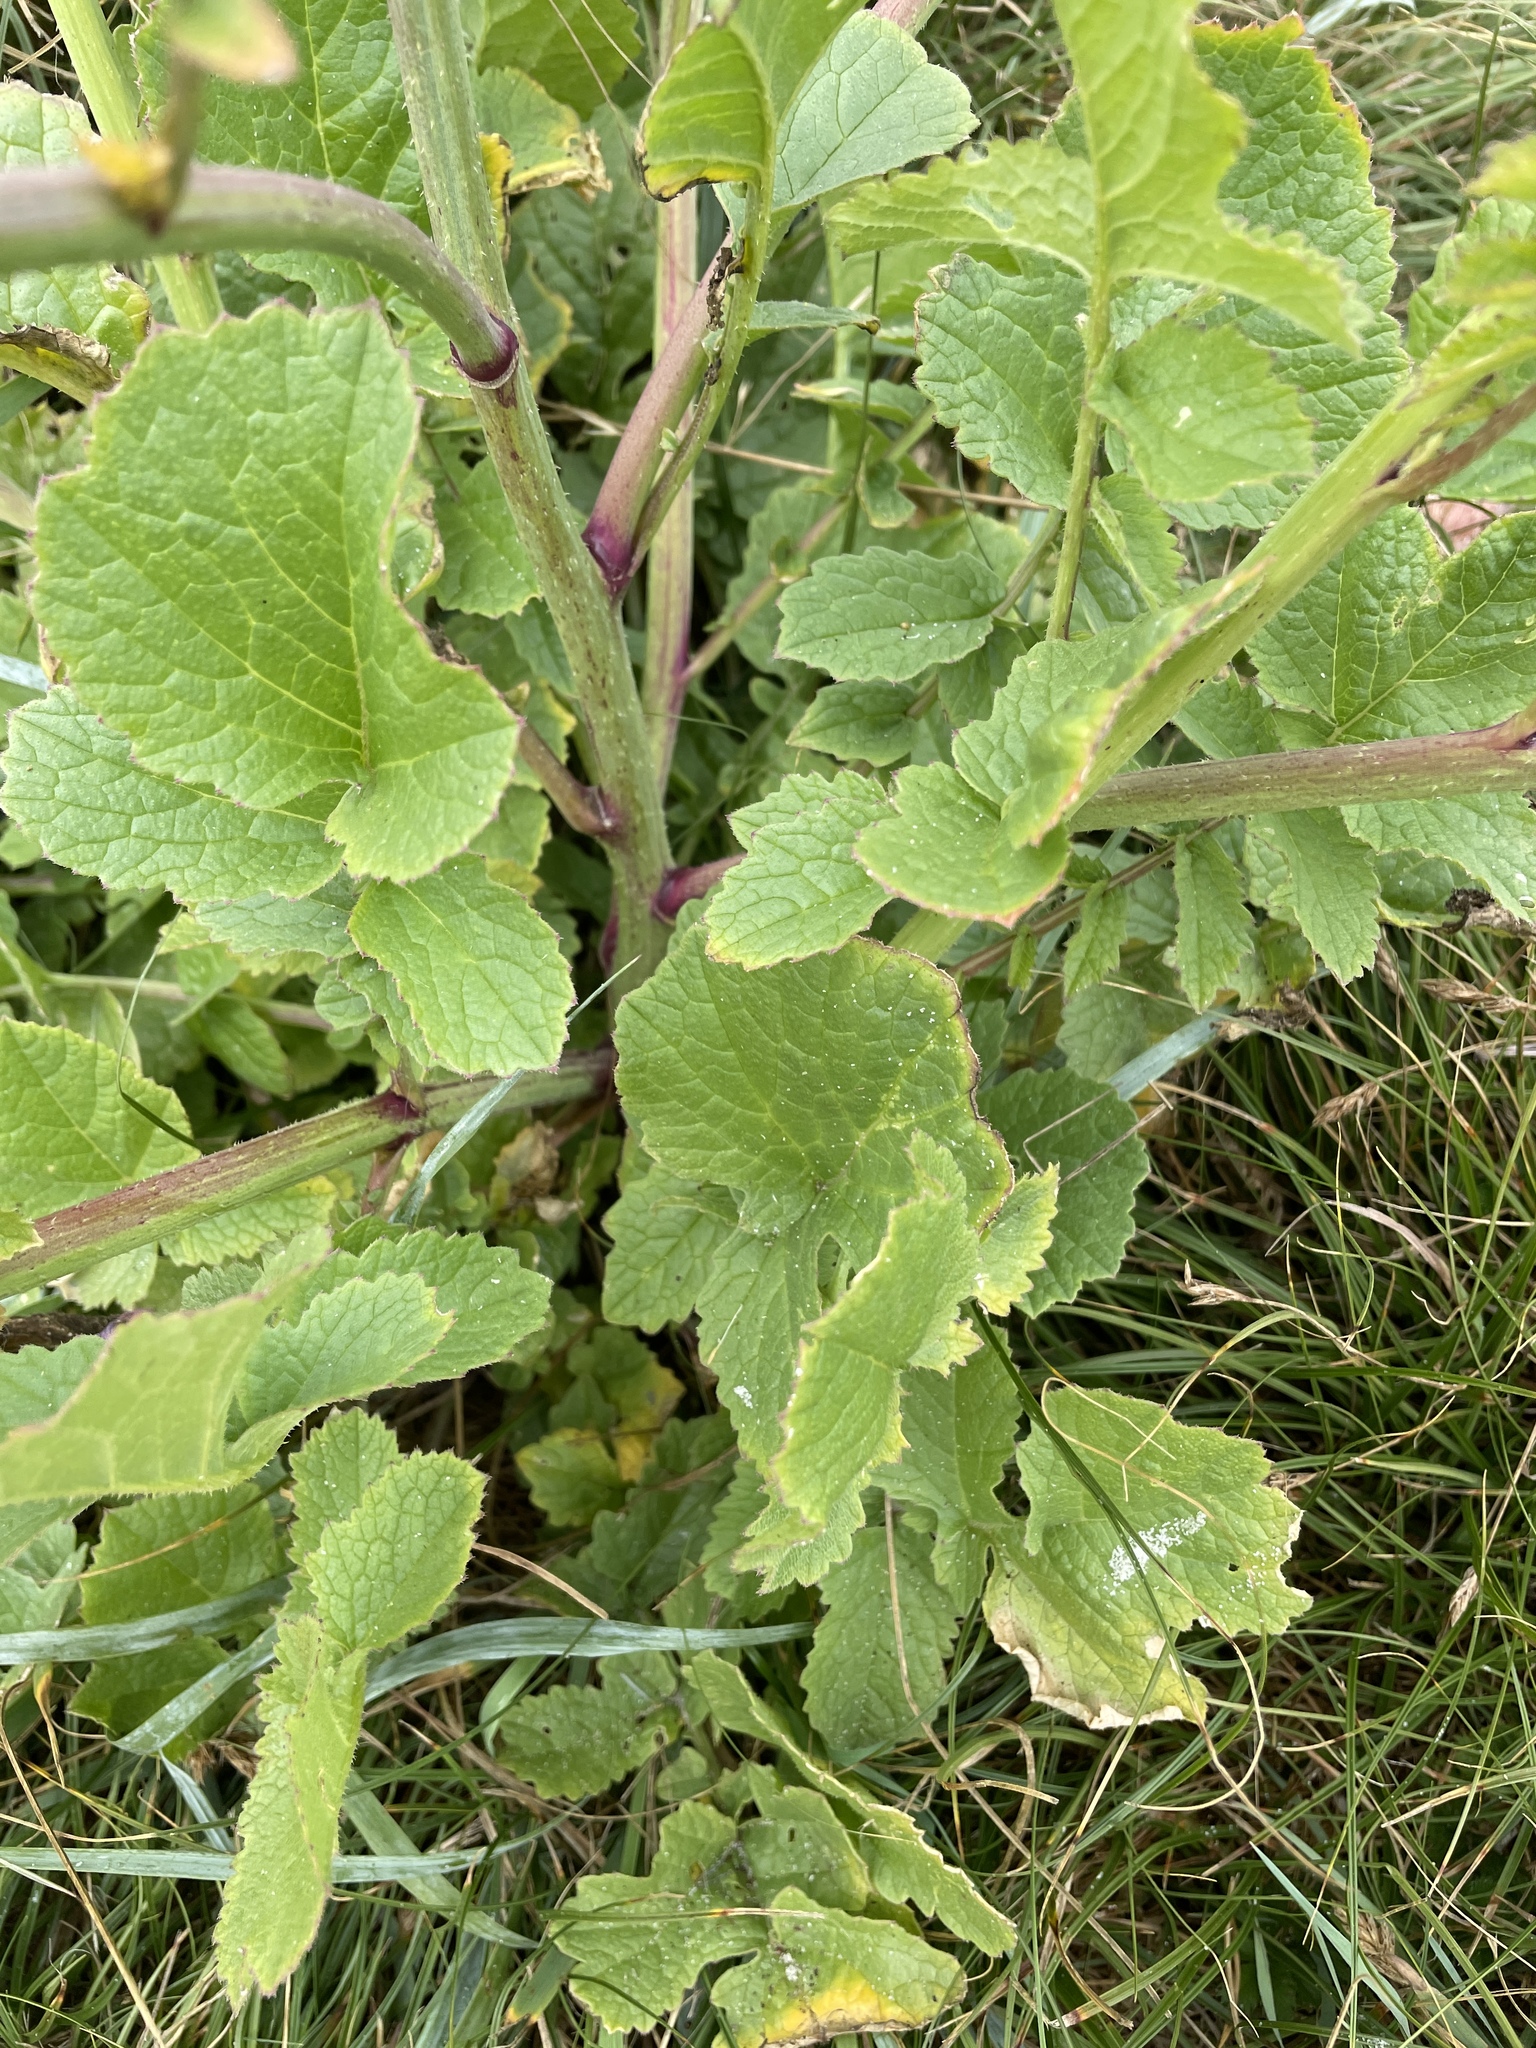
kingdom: Plantae
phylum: Tracheophyta
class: Magnoliopsida
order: Brassicales
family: Brassicaceae
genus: Raphanus
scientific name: Raphanus sativus
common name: Cultivated radish
